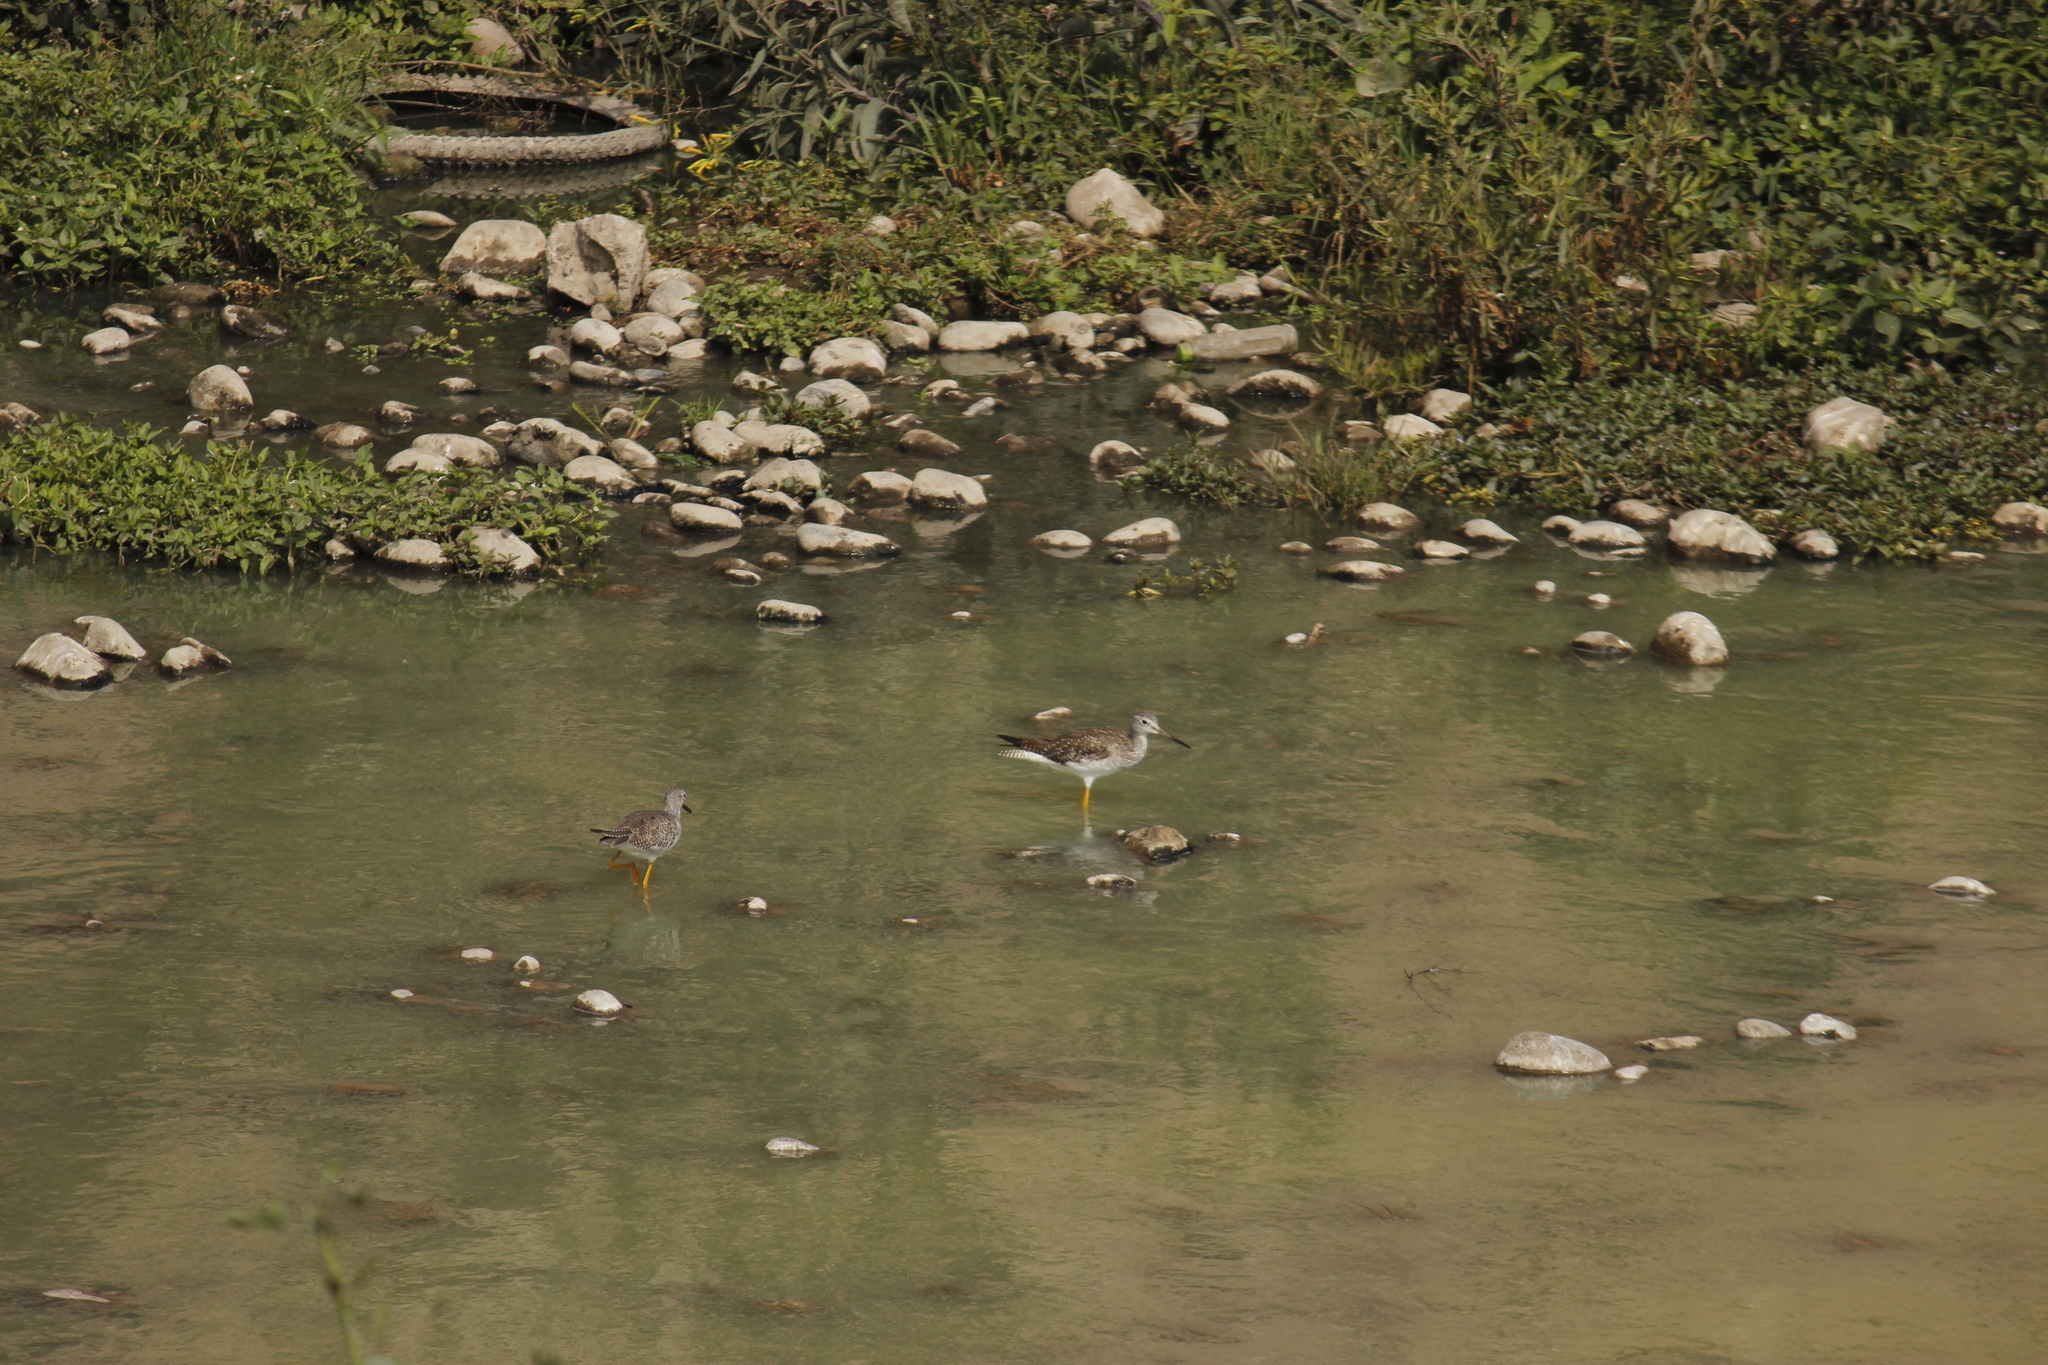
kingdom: Animalia
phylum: Chordata
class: Aves
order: Charadriiformes
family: Scolopacidae
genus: Tringa
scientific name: Tringa melanoleuca
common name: Greater yellowlegs
